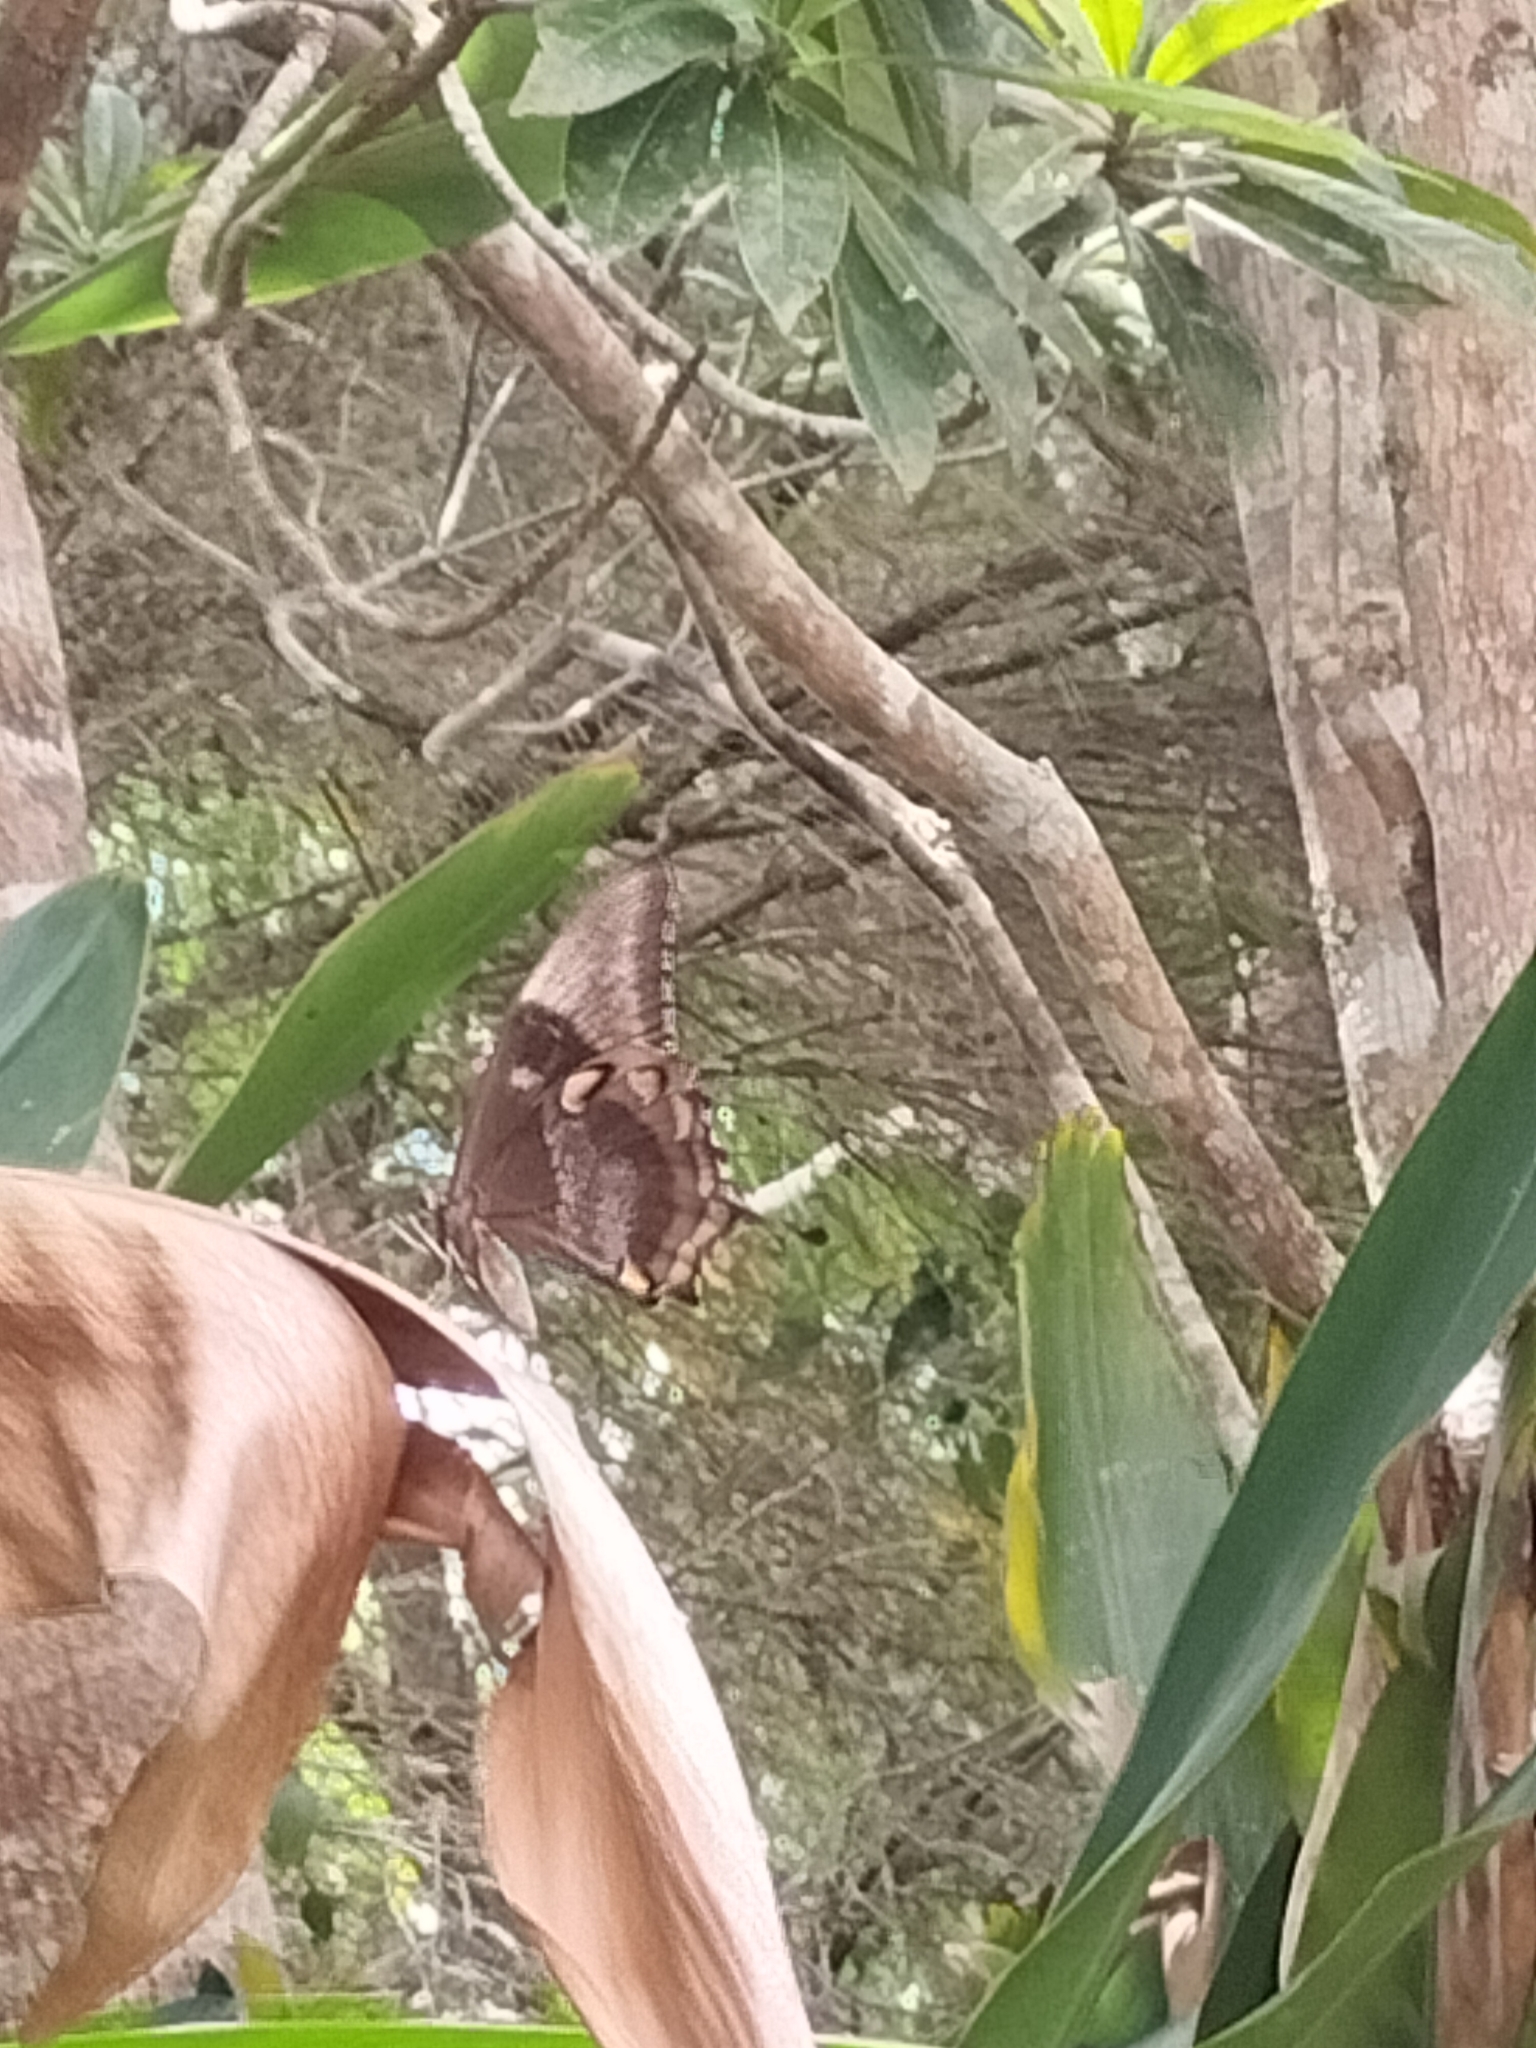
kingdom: Animalia
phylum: Arthropoda
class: Insecta
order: Lepidoptera
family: Papilionidae
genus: Papilio
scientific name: Papilio ulysses
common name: Blue emperor
